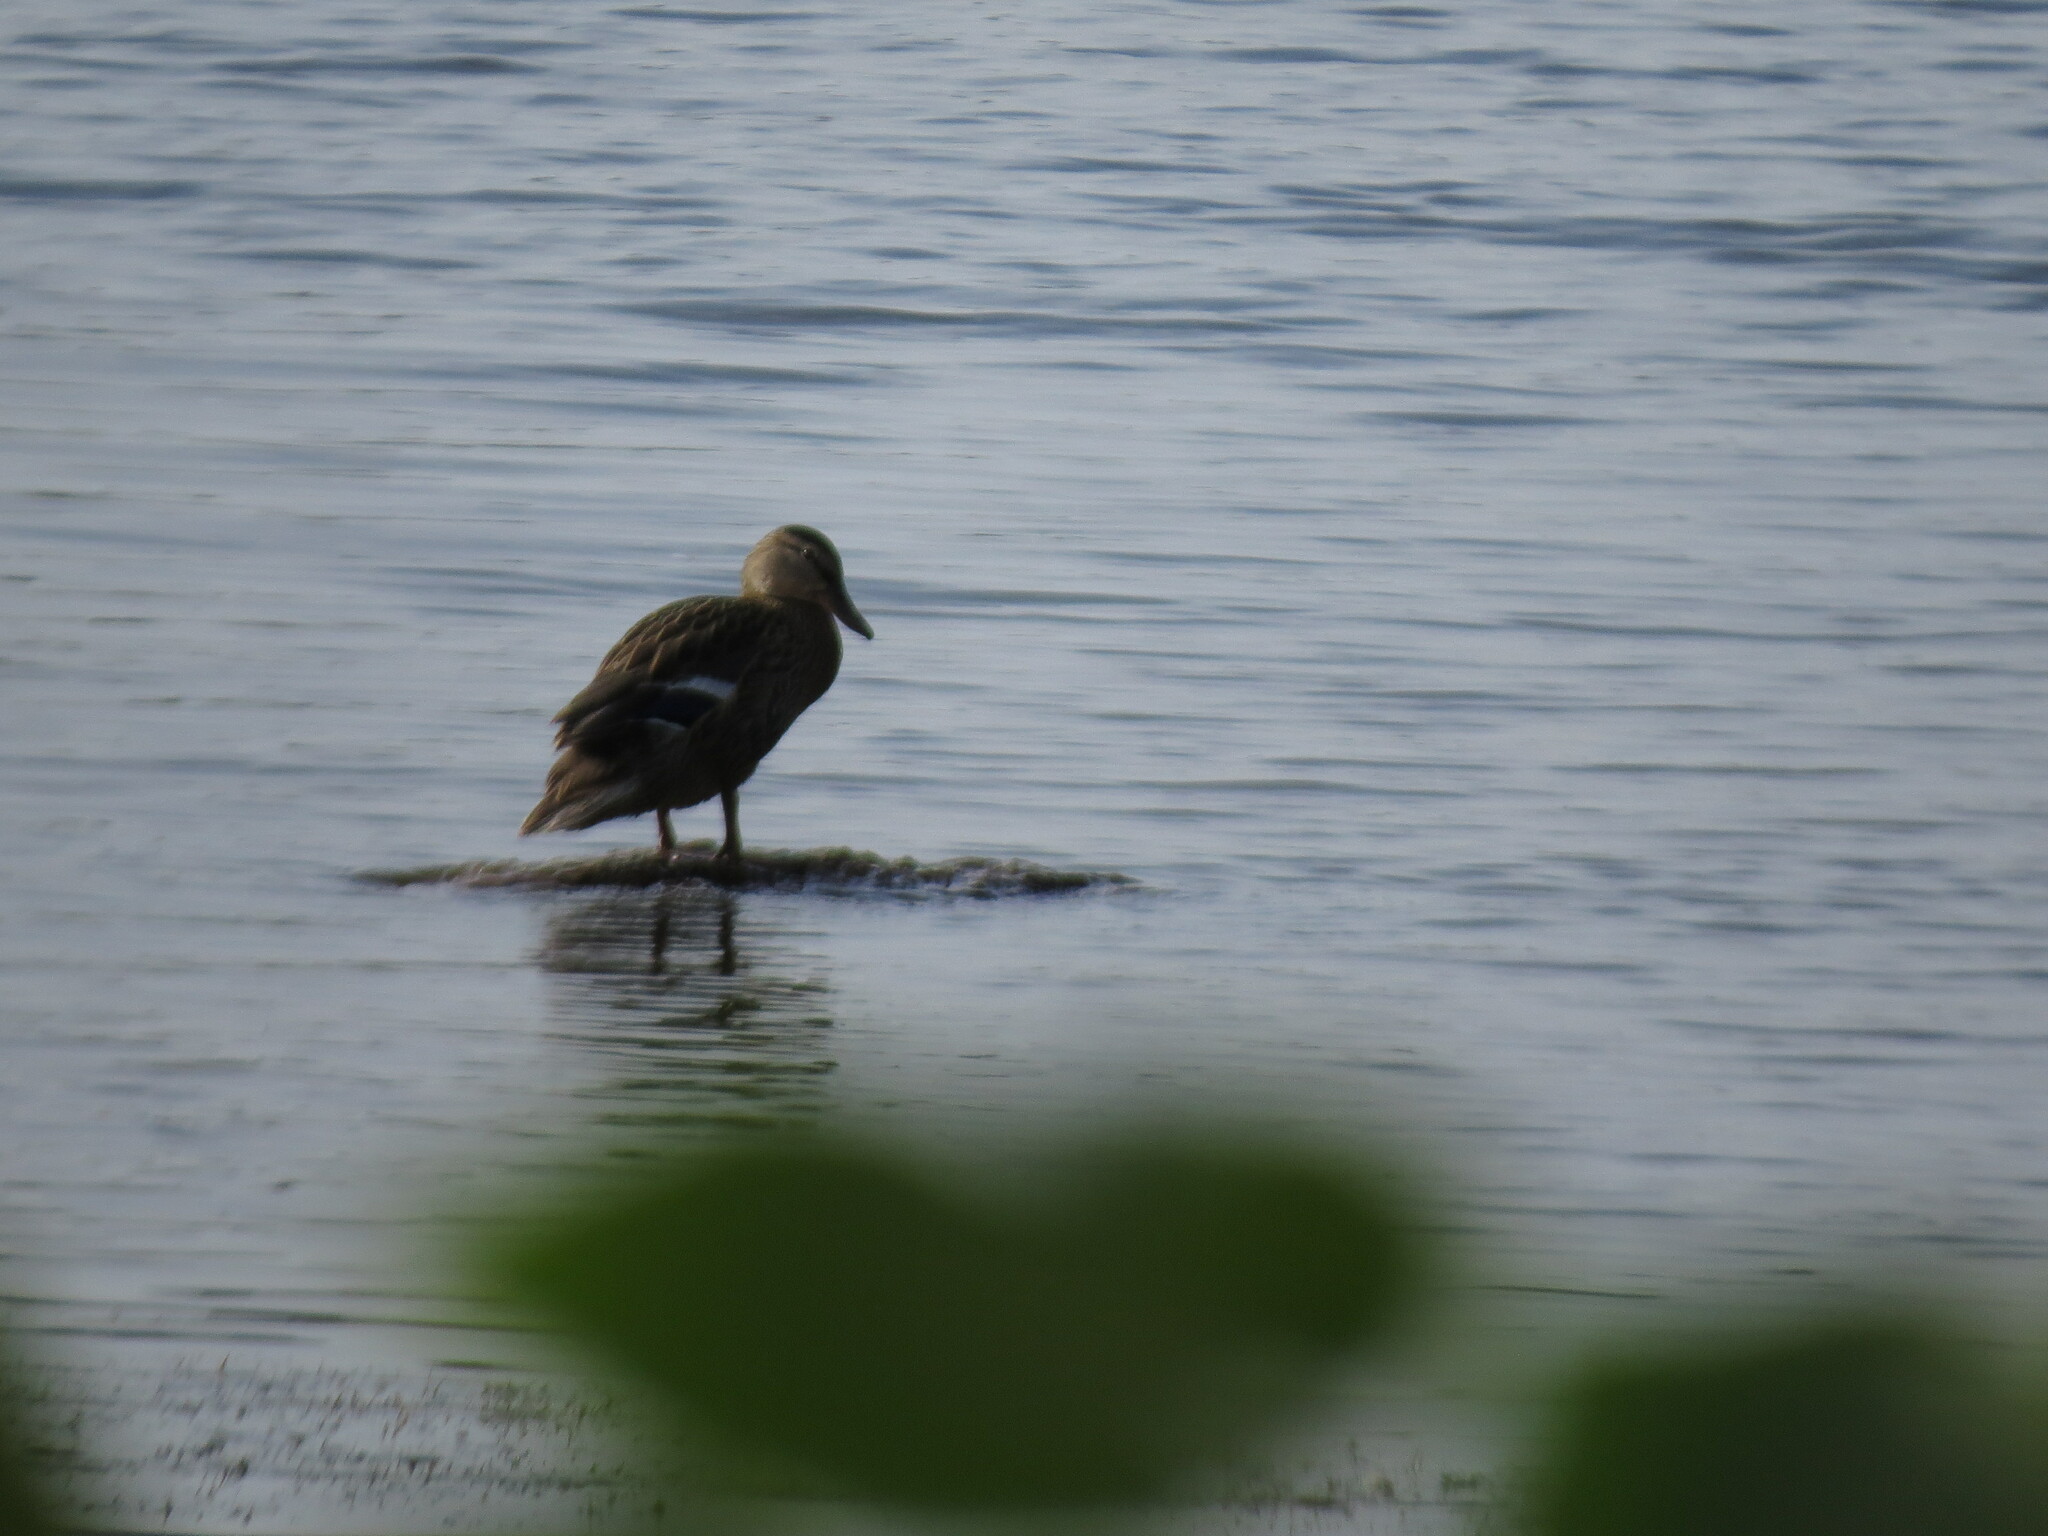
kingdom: Animalia
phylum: Chordata
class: Aves
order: Anseriformes
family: Anatidae
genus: Anas
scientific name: Anas platyrhynchos
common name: Mallard
